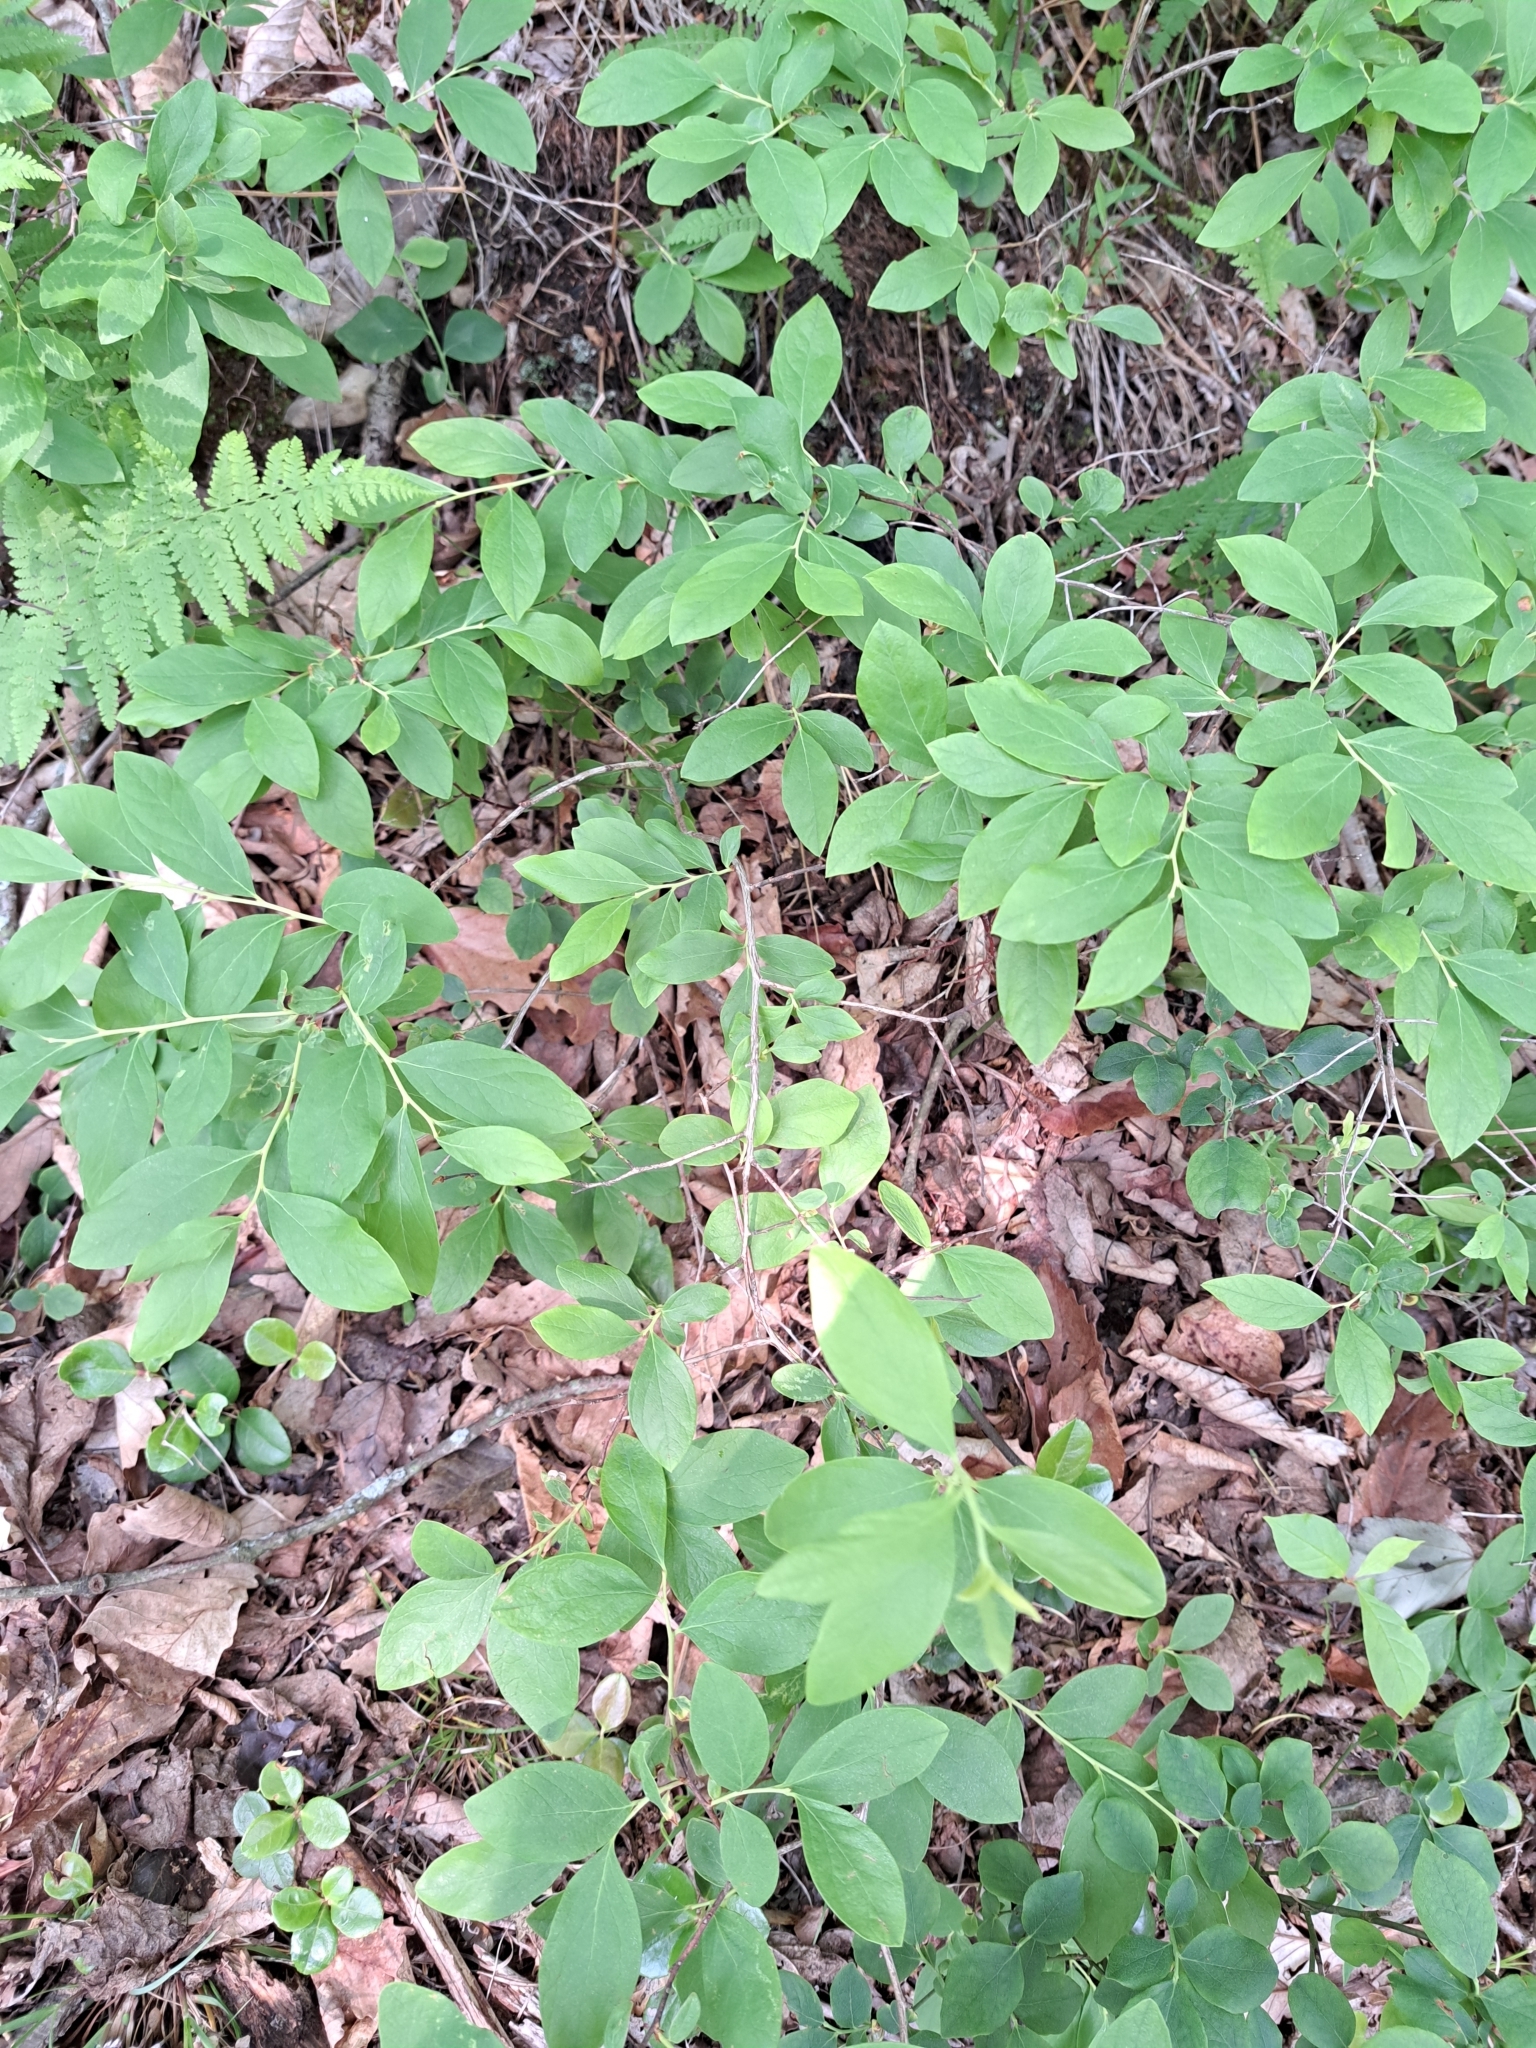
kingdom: Plantae
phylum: Tracheophyta
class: Magnoliopsida
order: Ericales
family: Ericaceae
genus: Vaccinium
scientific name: Vaccinium pallidum
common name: Blue ridge blueberry
